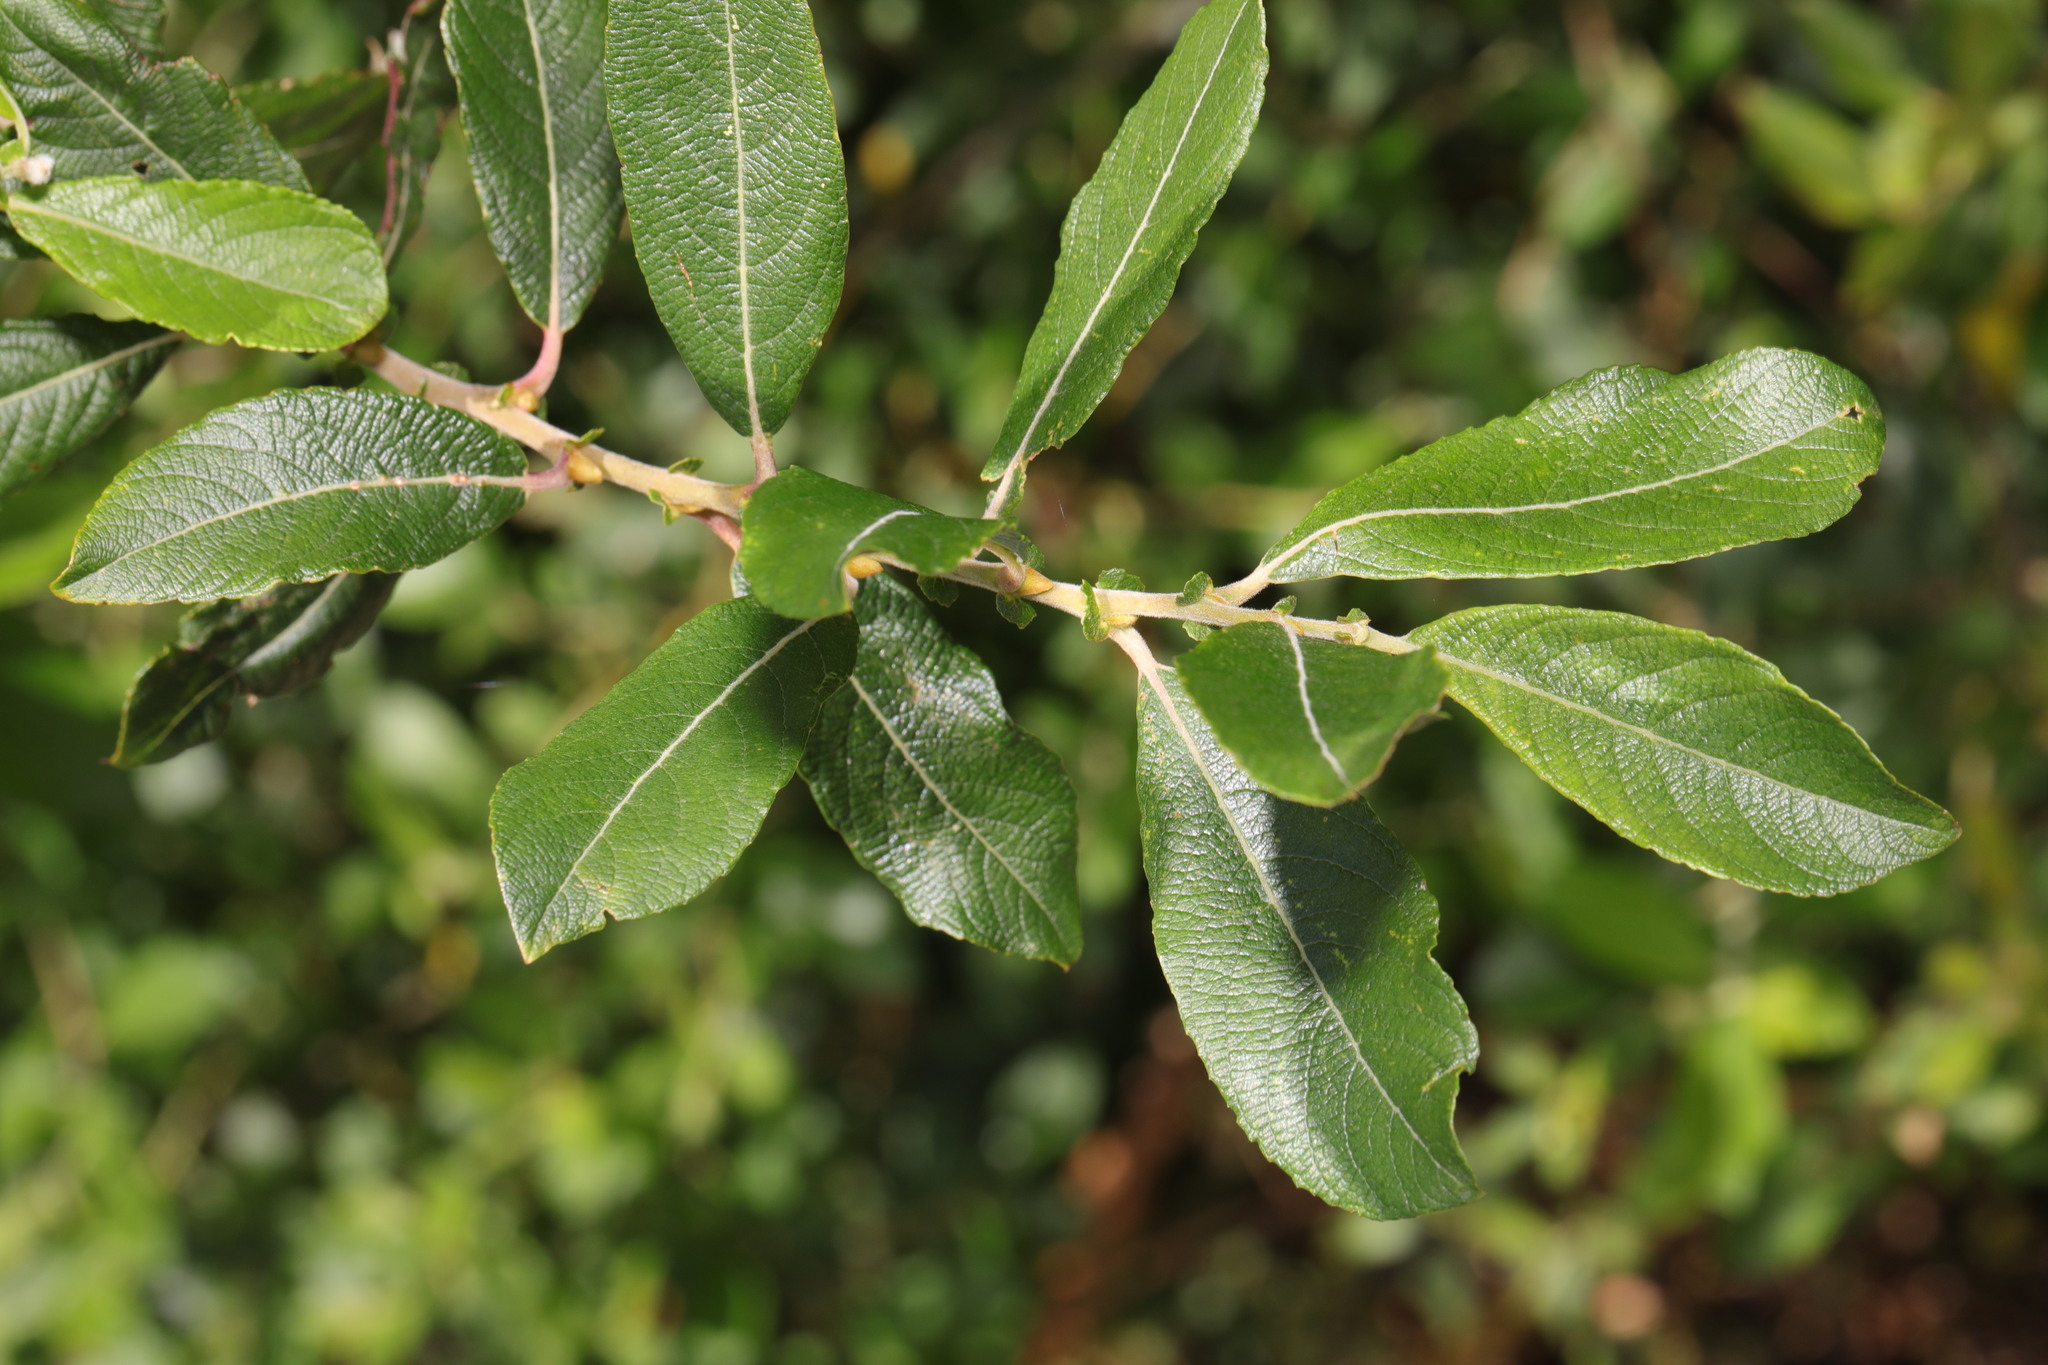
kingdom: Plantae
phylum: Tracheophyta
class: Magnoliopsida
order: Malpighiales
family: Salicaceae
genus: Salix
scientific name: Salix cinerea
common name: Common sallow
